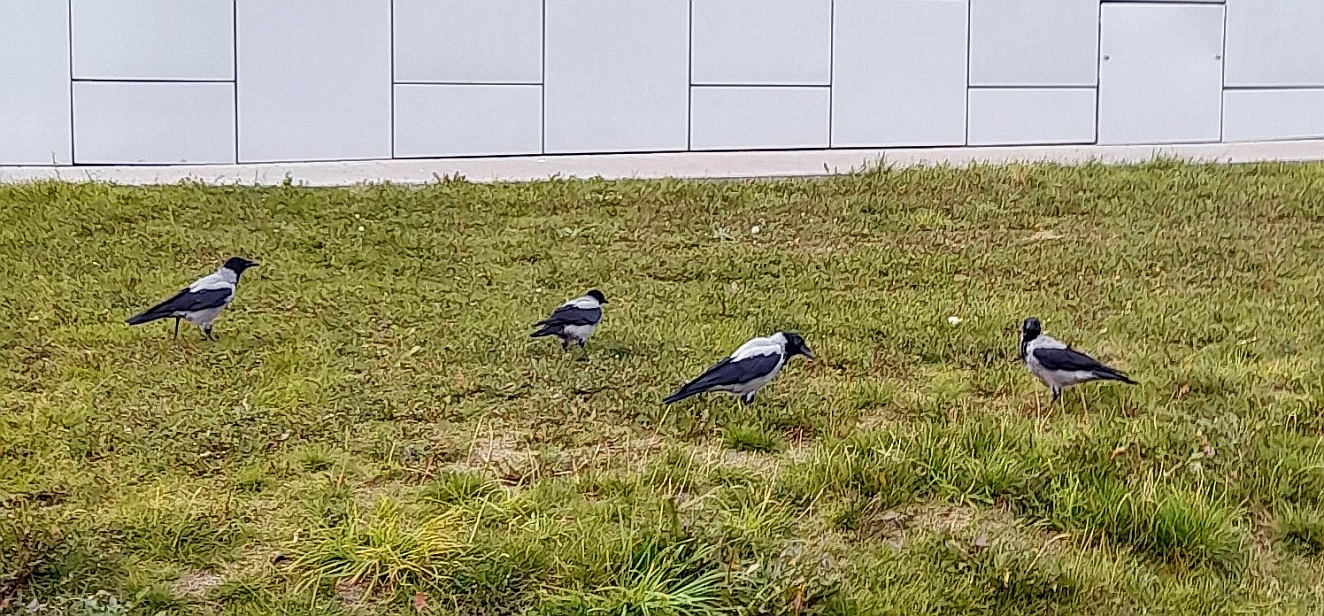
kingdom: Animalia
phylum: Chordata
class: Aves
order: Passeriformes
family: Corvidae
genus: Corvus
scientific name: Corvus cornix
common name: Hooded crow
